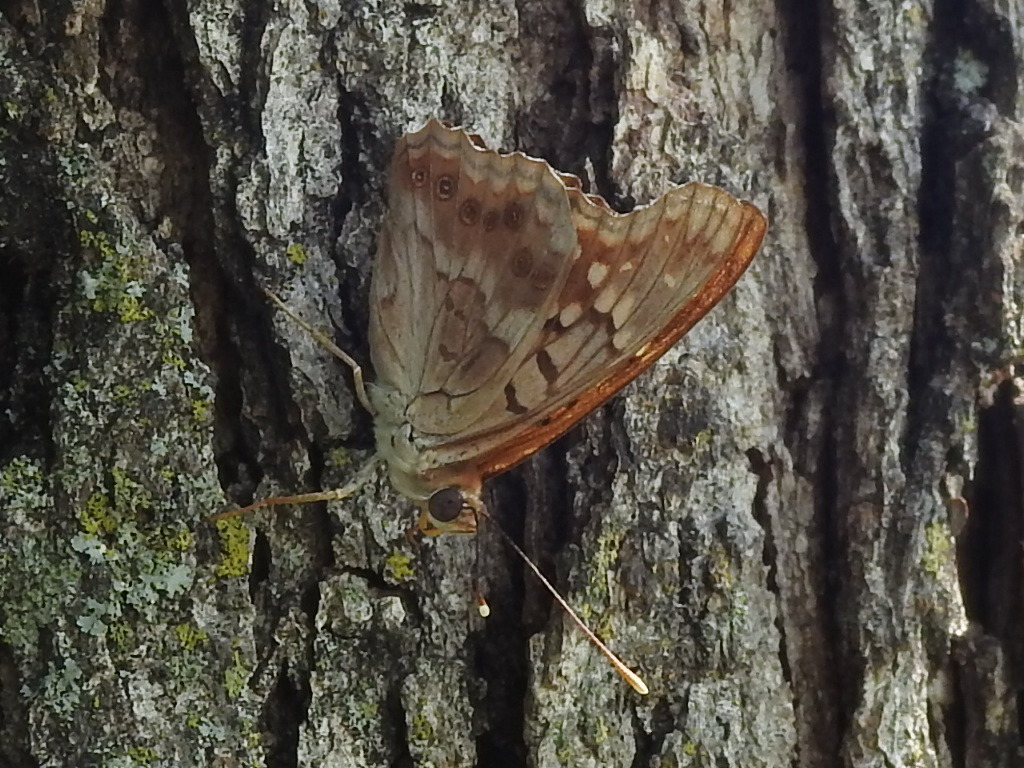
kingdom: Animalia
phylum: Arthropoda
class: Insecta
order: Lepidoptera
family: Nymphalidae
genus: Asterocampa
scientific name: Asterocampa clyton
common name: Tawny emperor
